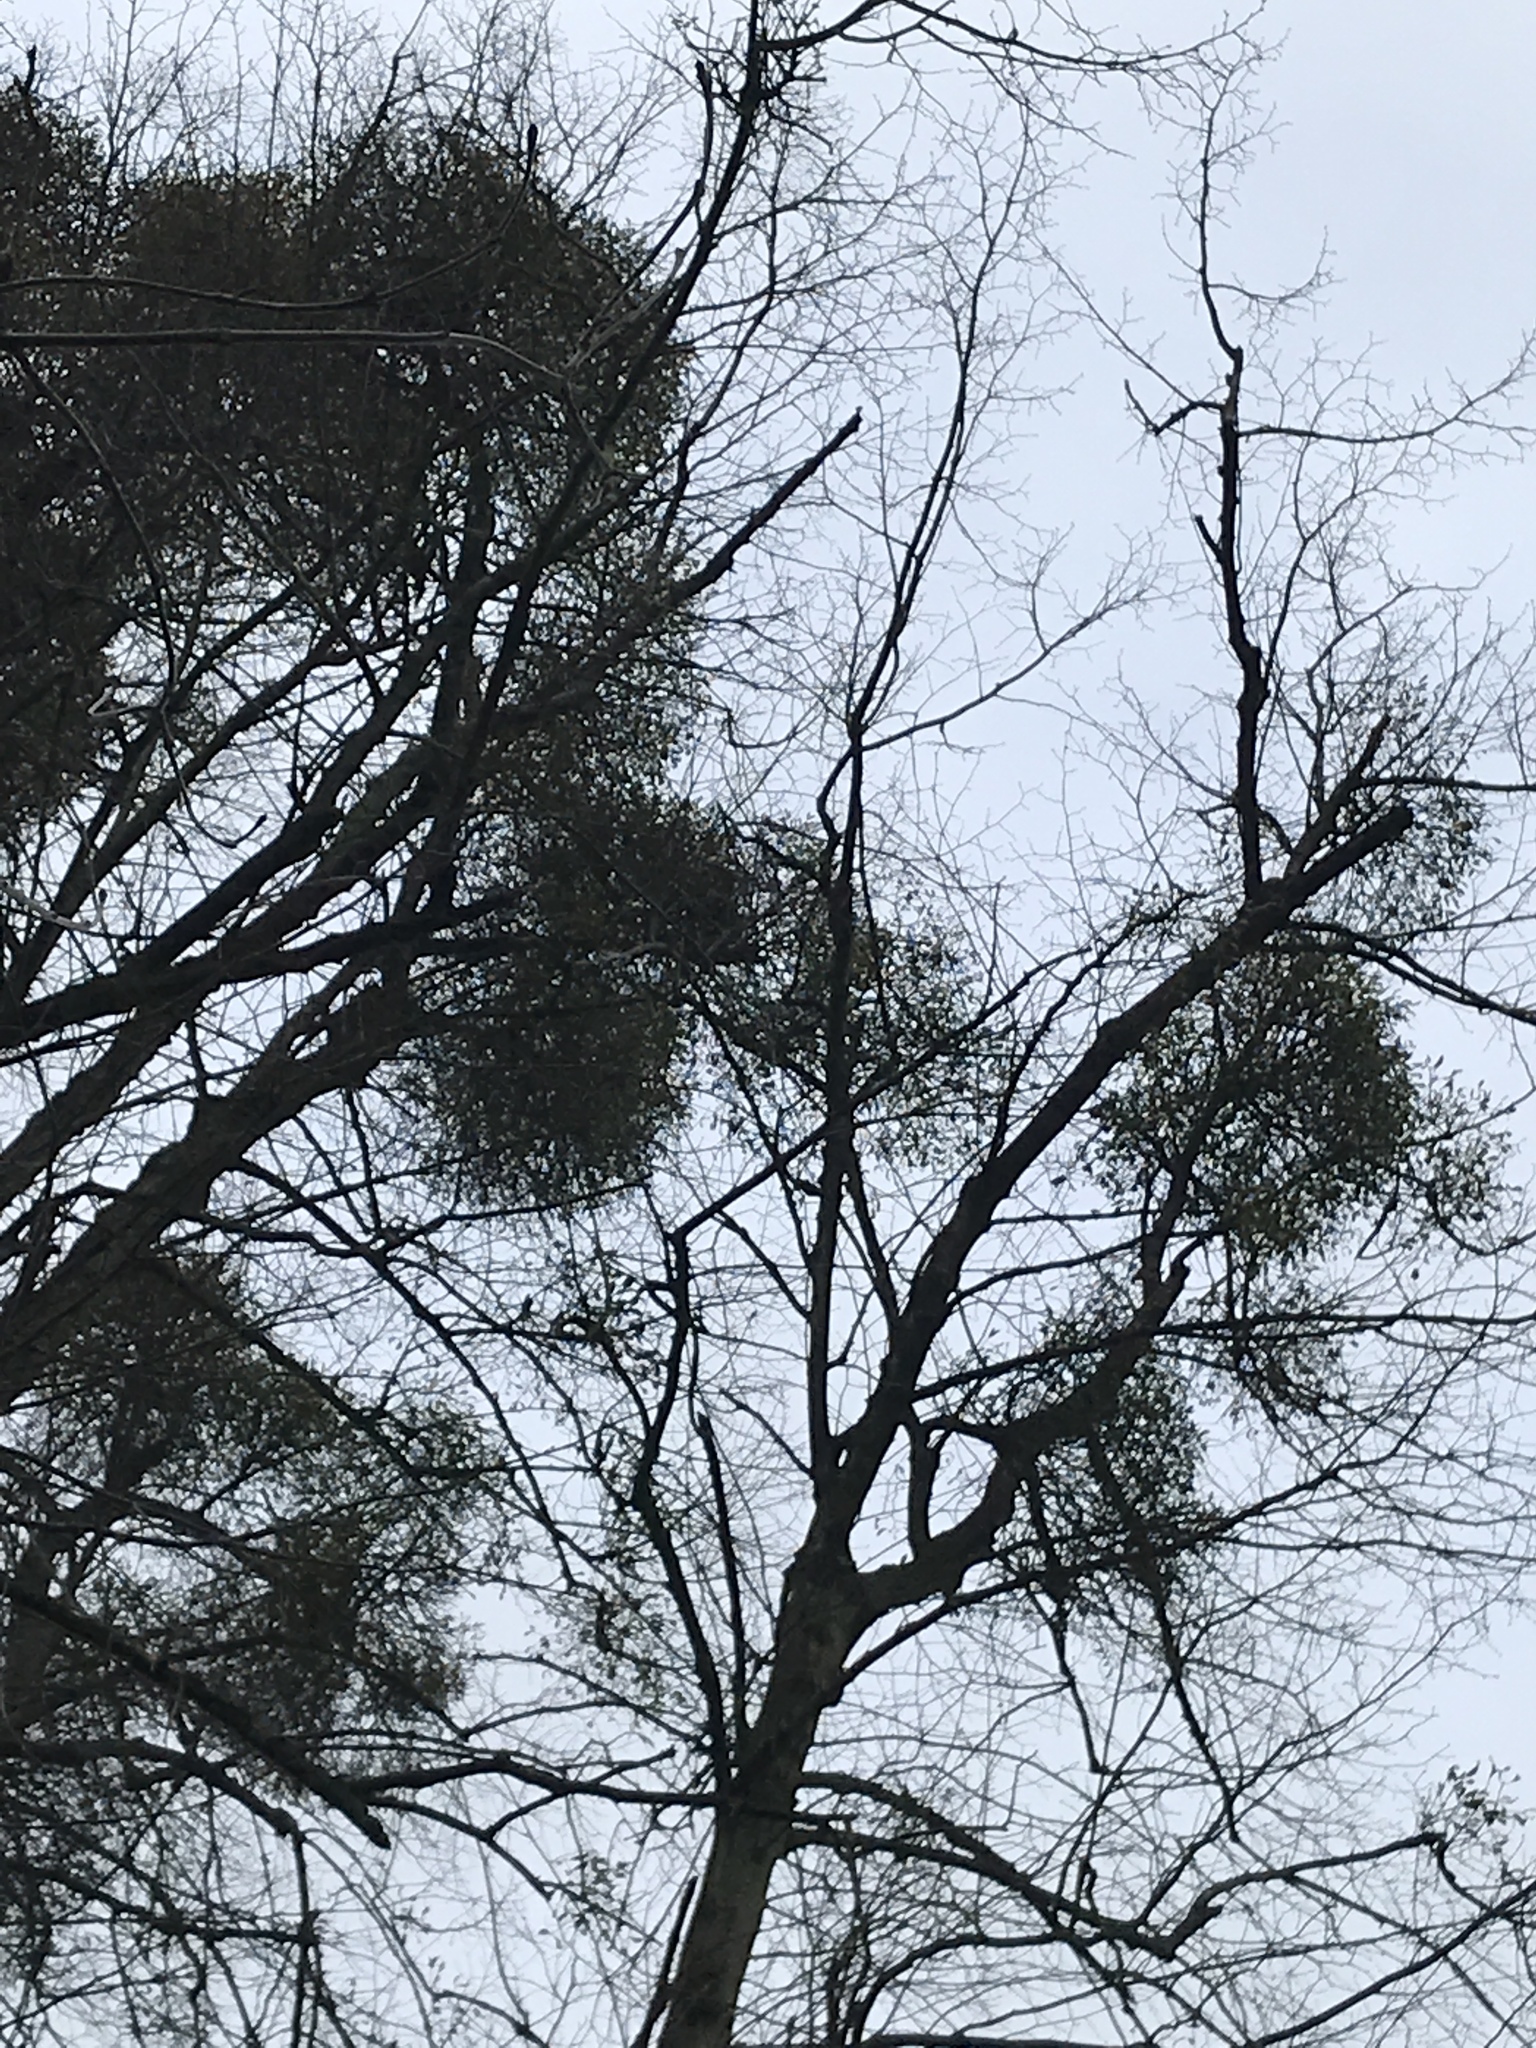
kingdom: Plantae
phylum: Tracheophyta
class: Magnoliopsida
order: Santalales
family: Viscaceae
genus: Viscum
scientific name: Viscum album
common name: Mistletoe
